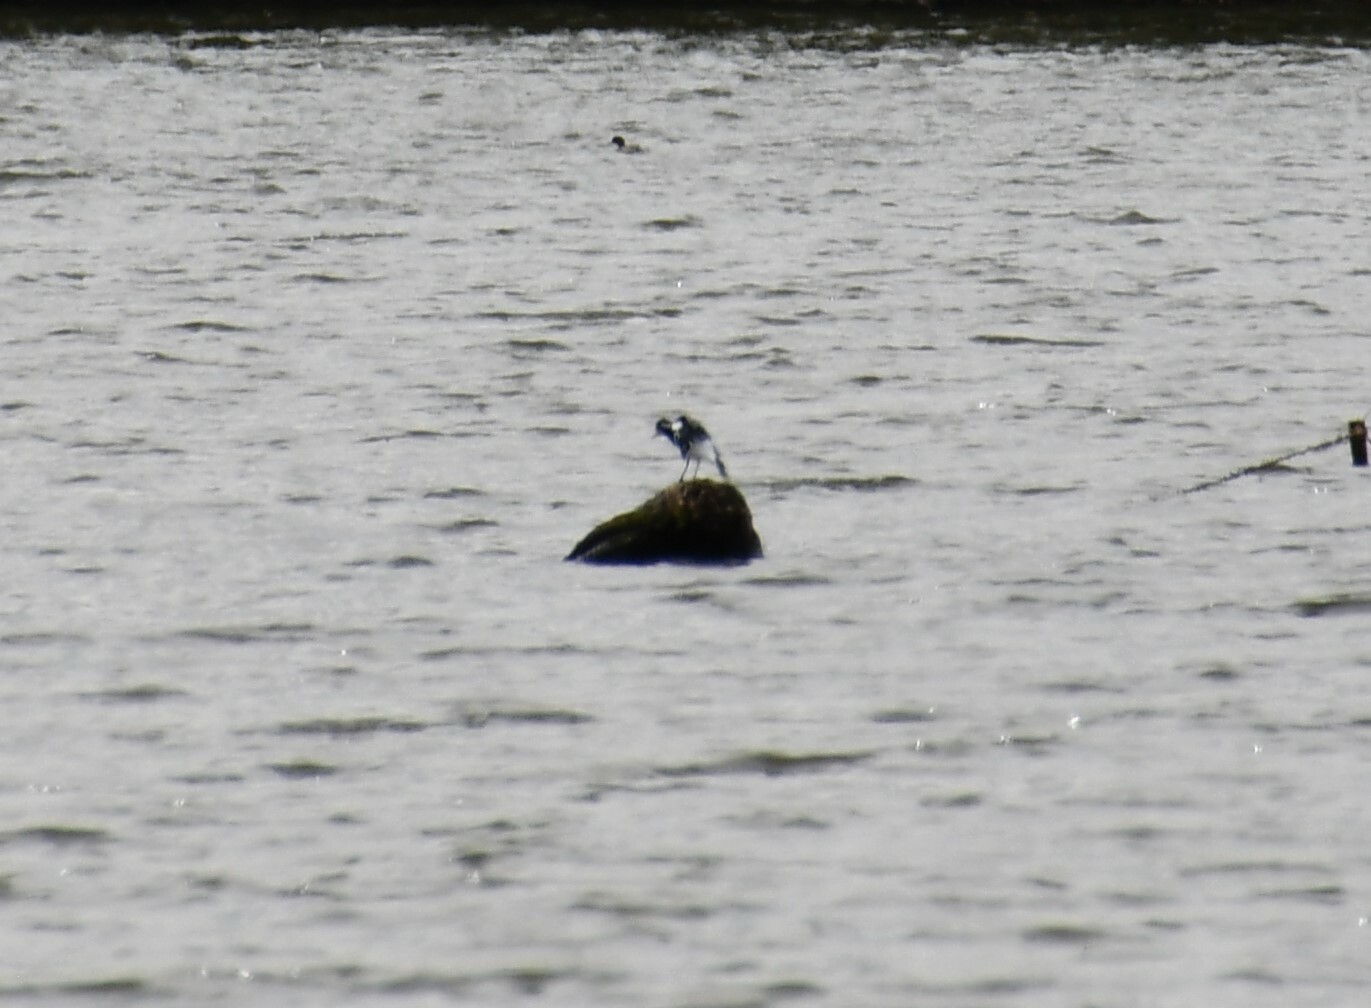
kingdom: Animalia
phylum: Chordata
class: Aves
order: Passeriformes
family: Monarchidae
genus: Grallina
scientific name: Grallina cyanoleuca
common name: Magpie-lark
